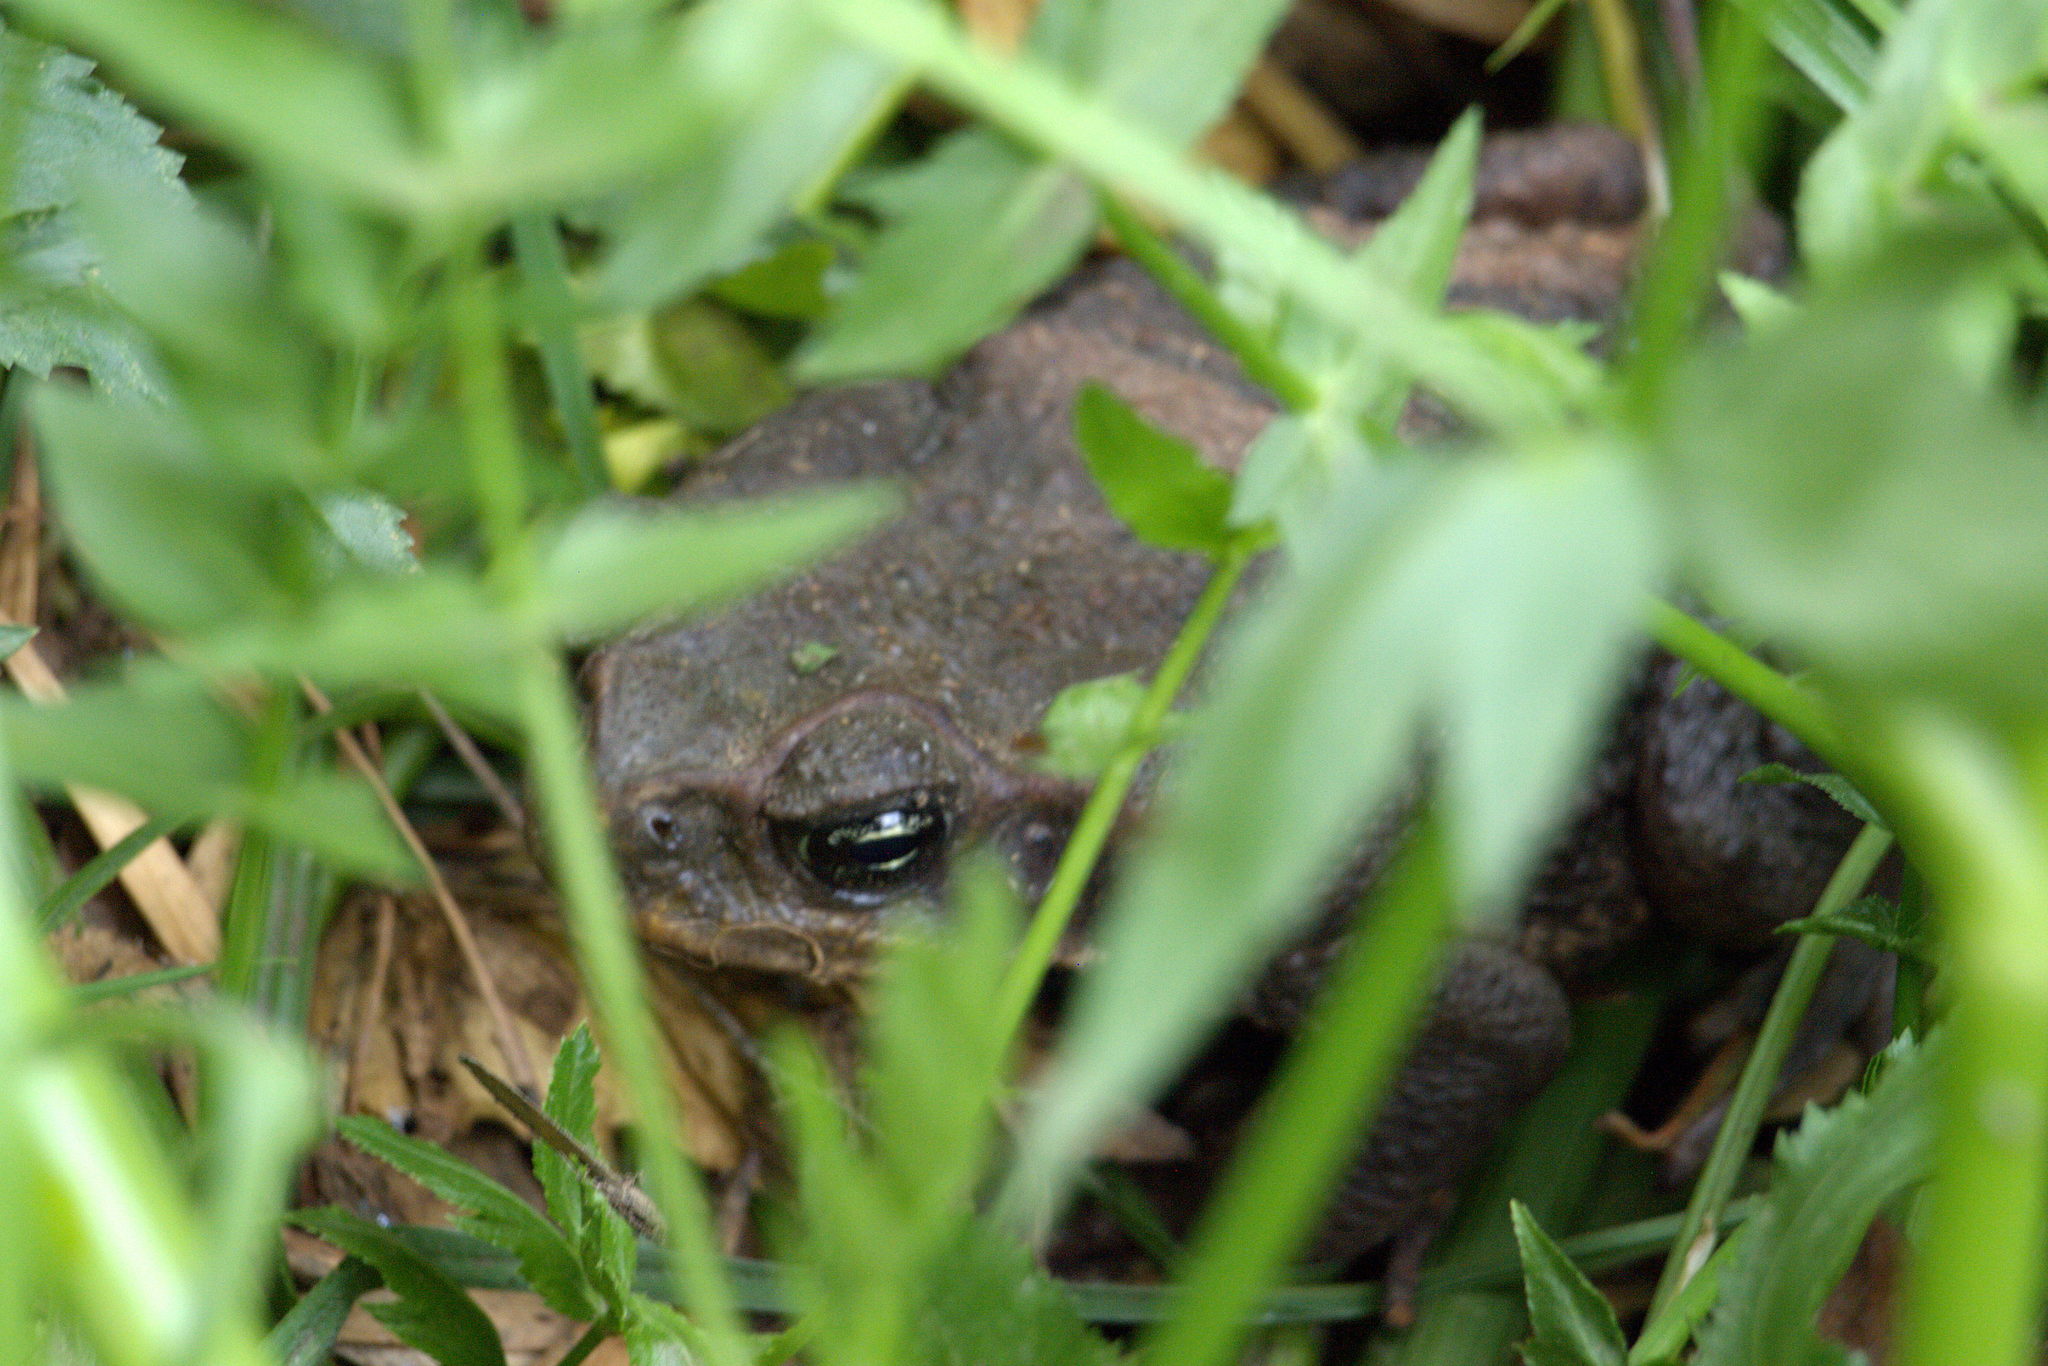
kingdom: Animalia
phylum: Chordata
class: Amphibia
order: Anura
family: Bufonidae
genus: Rhinella
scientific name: Rhinella horribilis
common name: Mesoamerican cane toad
